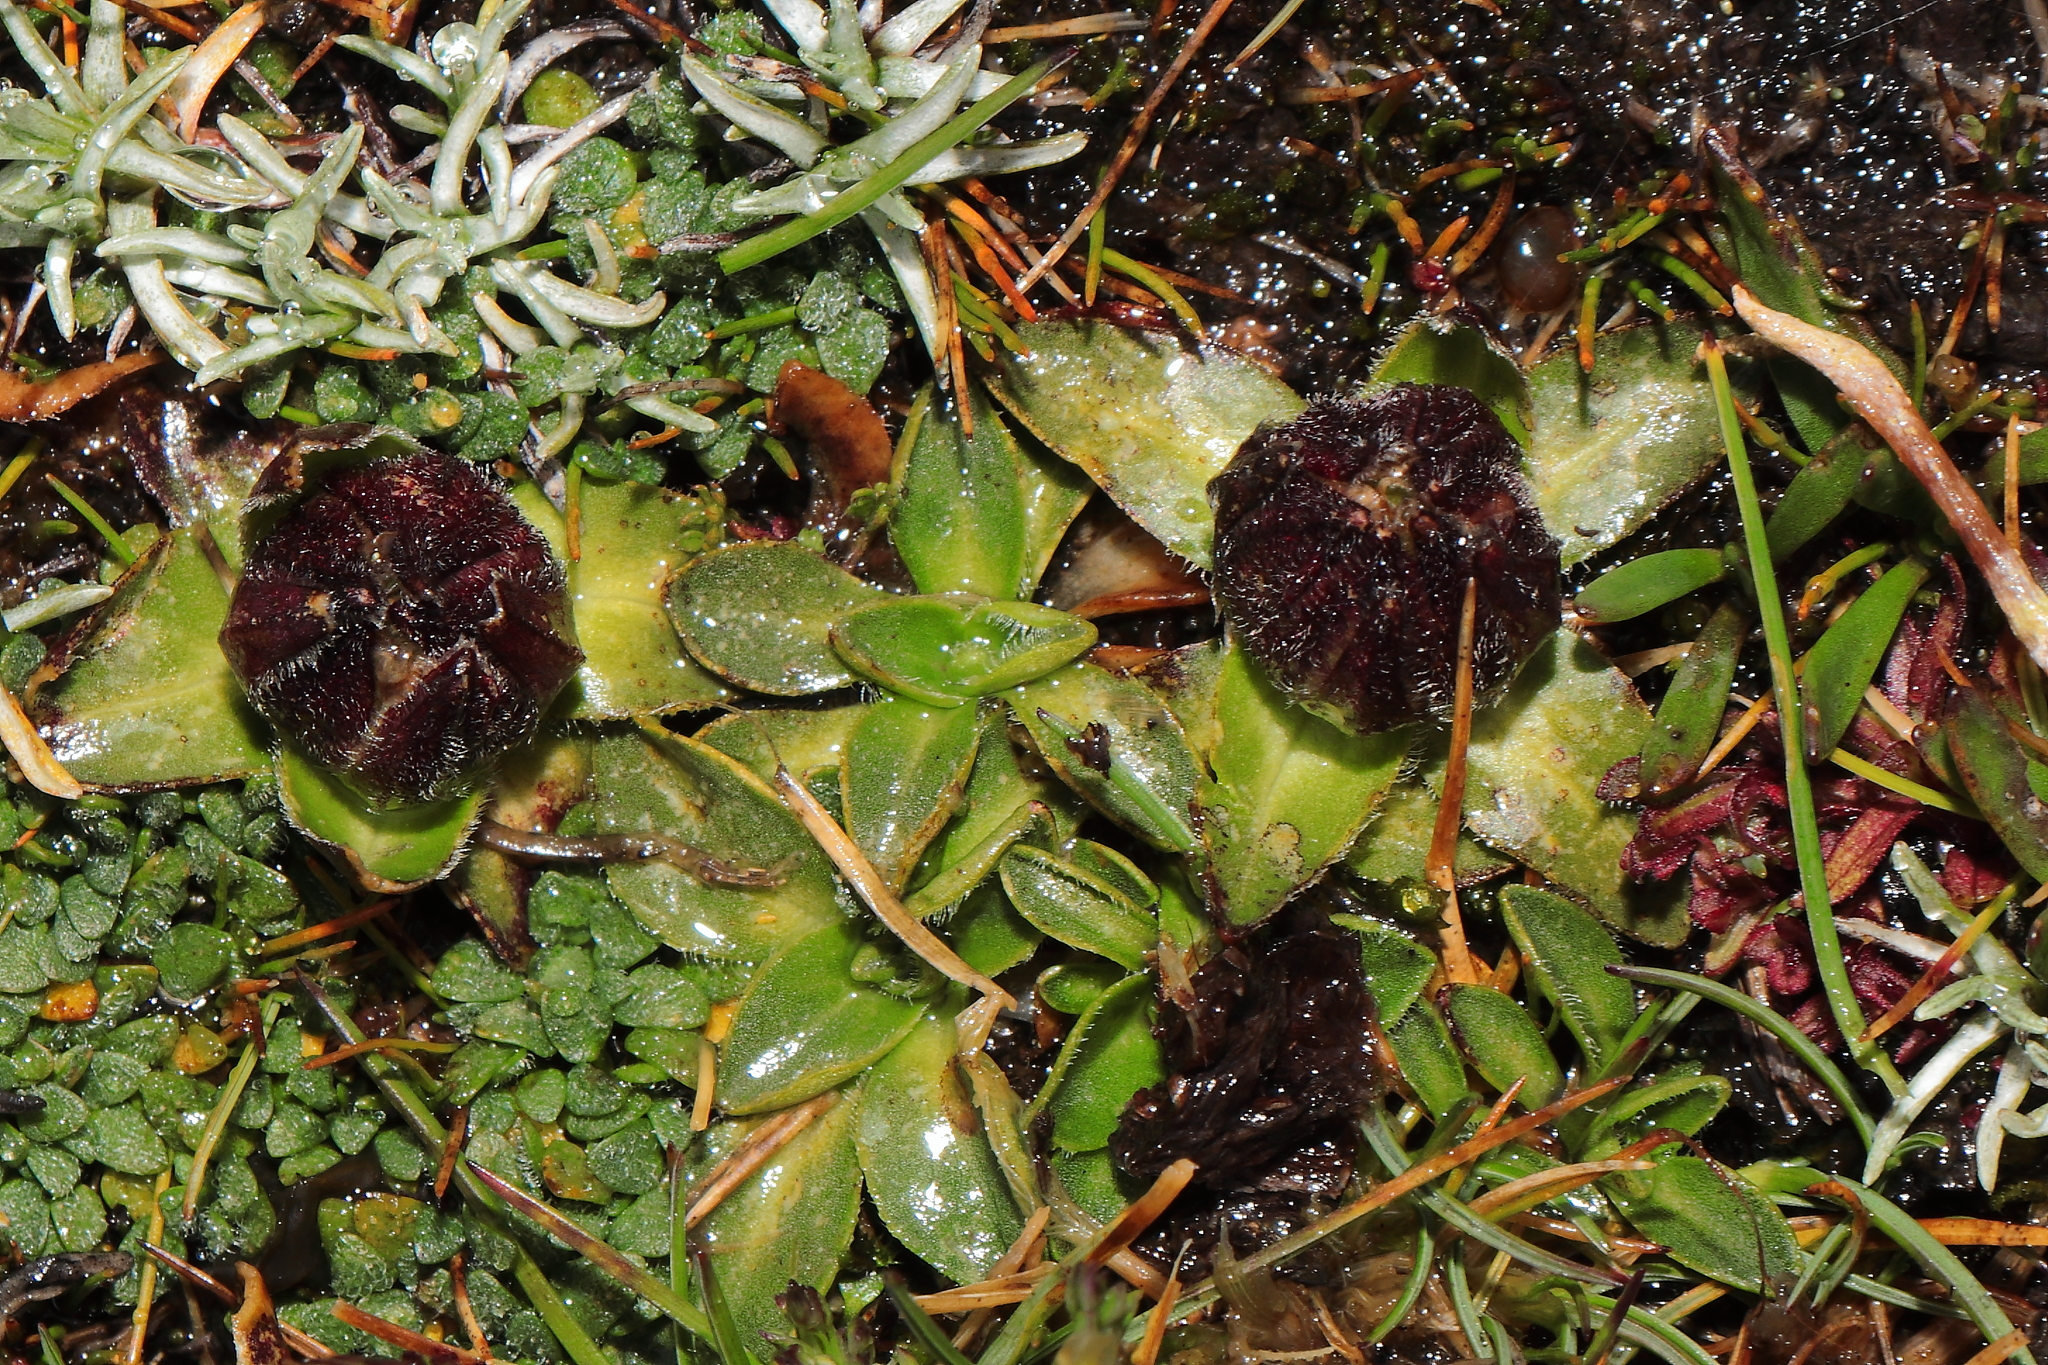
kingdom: Plantae
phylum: Tracheophyta
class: Magnoliopsida
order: Caryophyllales
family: Caryophyllaceae
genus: Silene
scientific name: Silene mandonii
